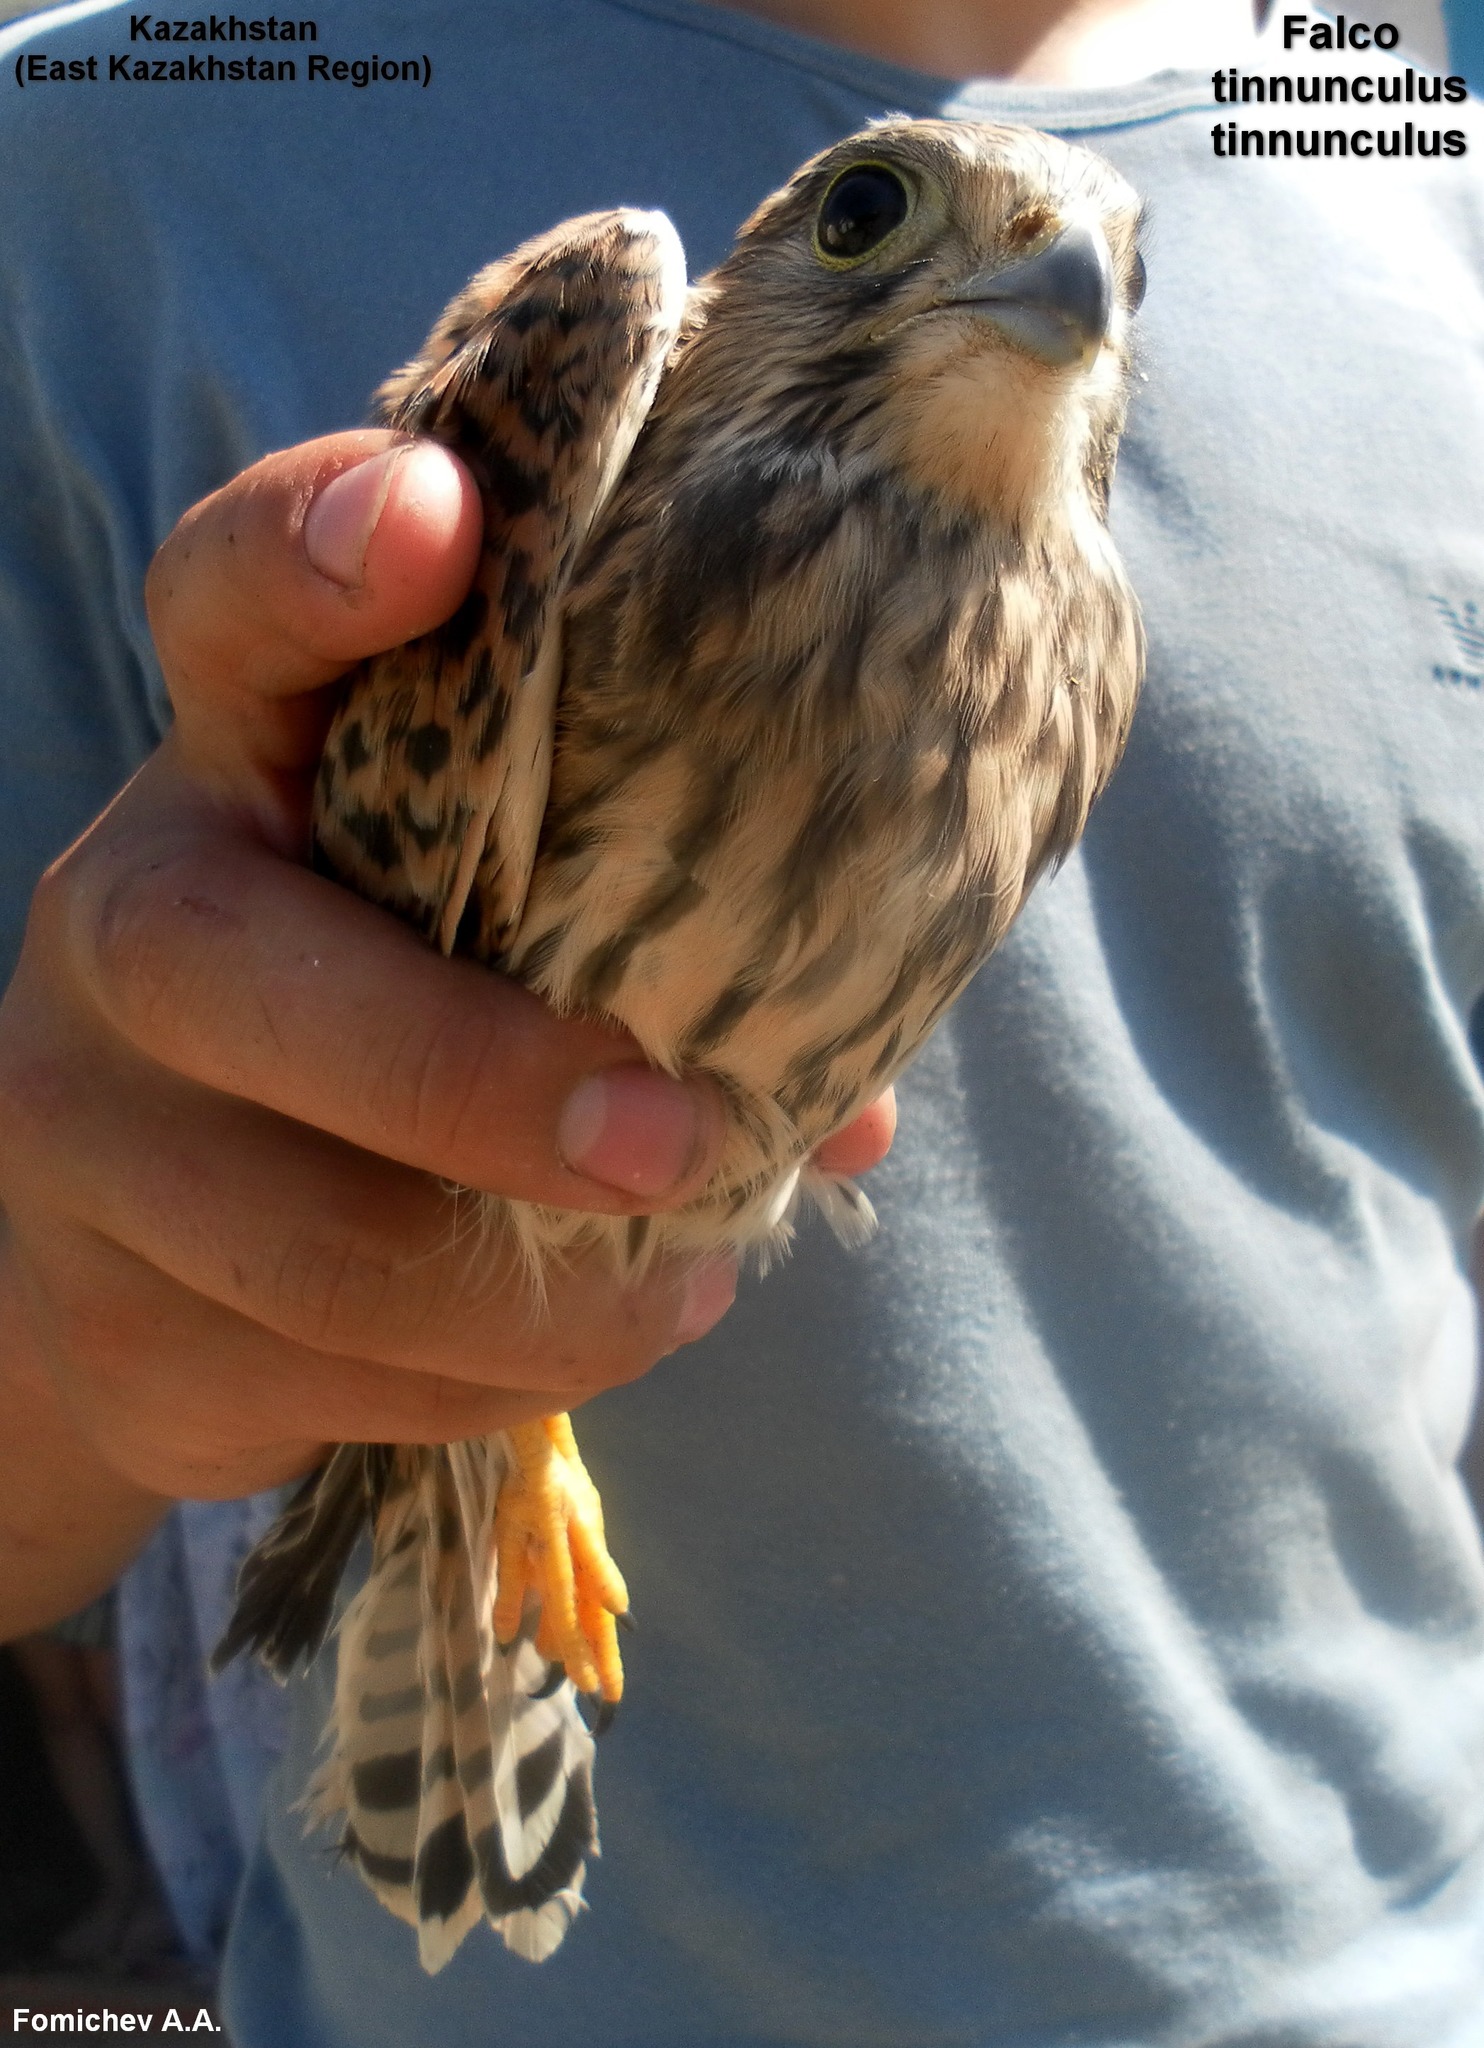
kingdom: Animalia
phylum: Chordata
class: Aves
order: Falconiformes
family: Falconidae
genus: Falco
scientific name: Falco tinnunculus
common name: Common kestrel
